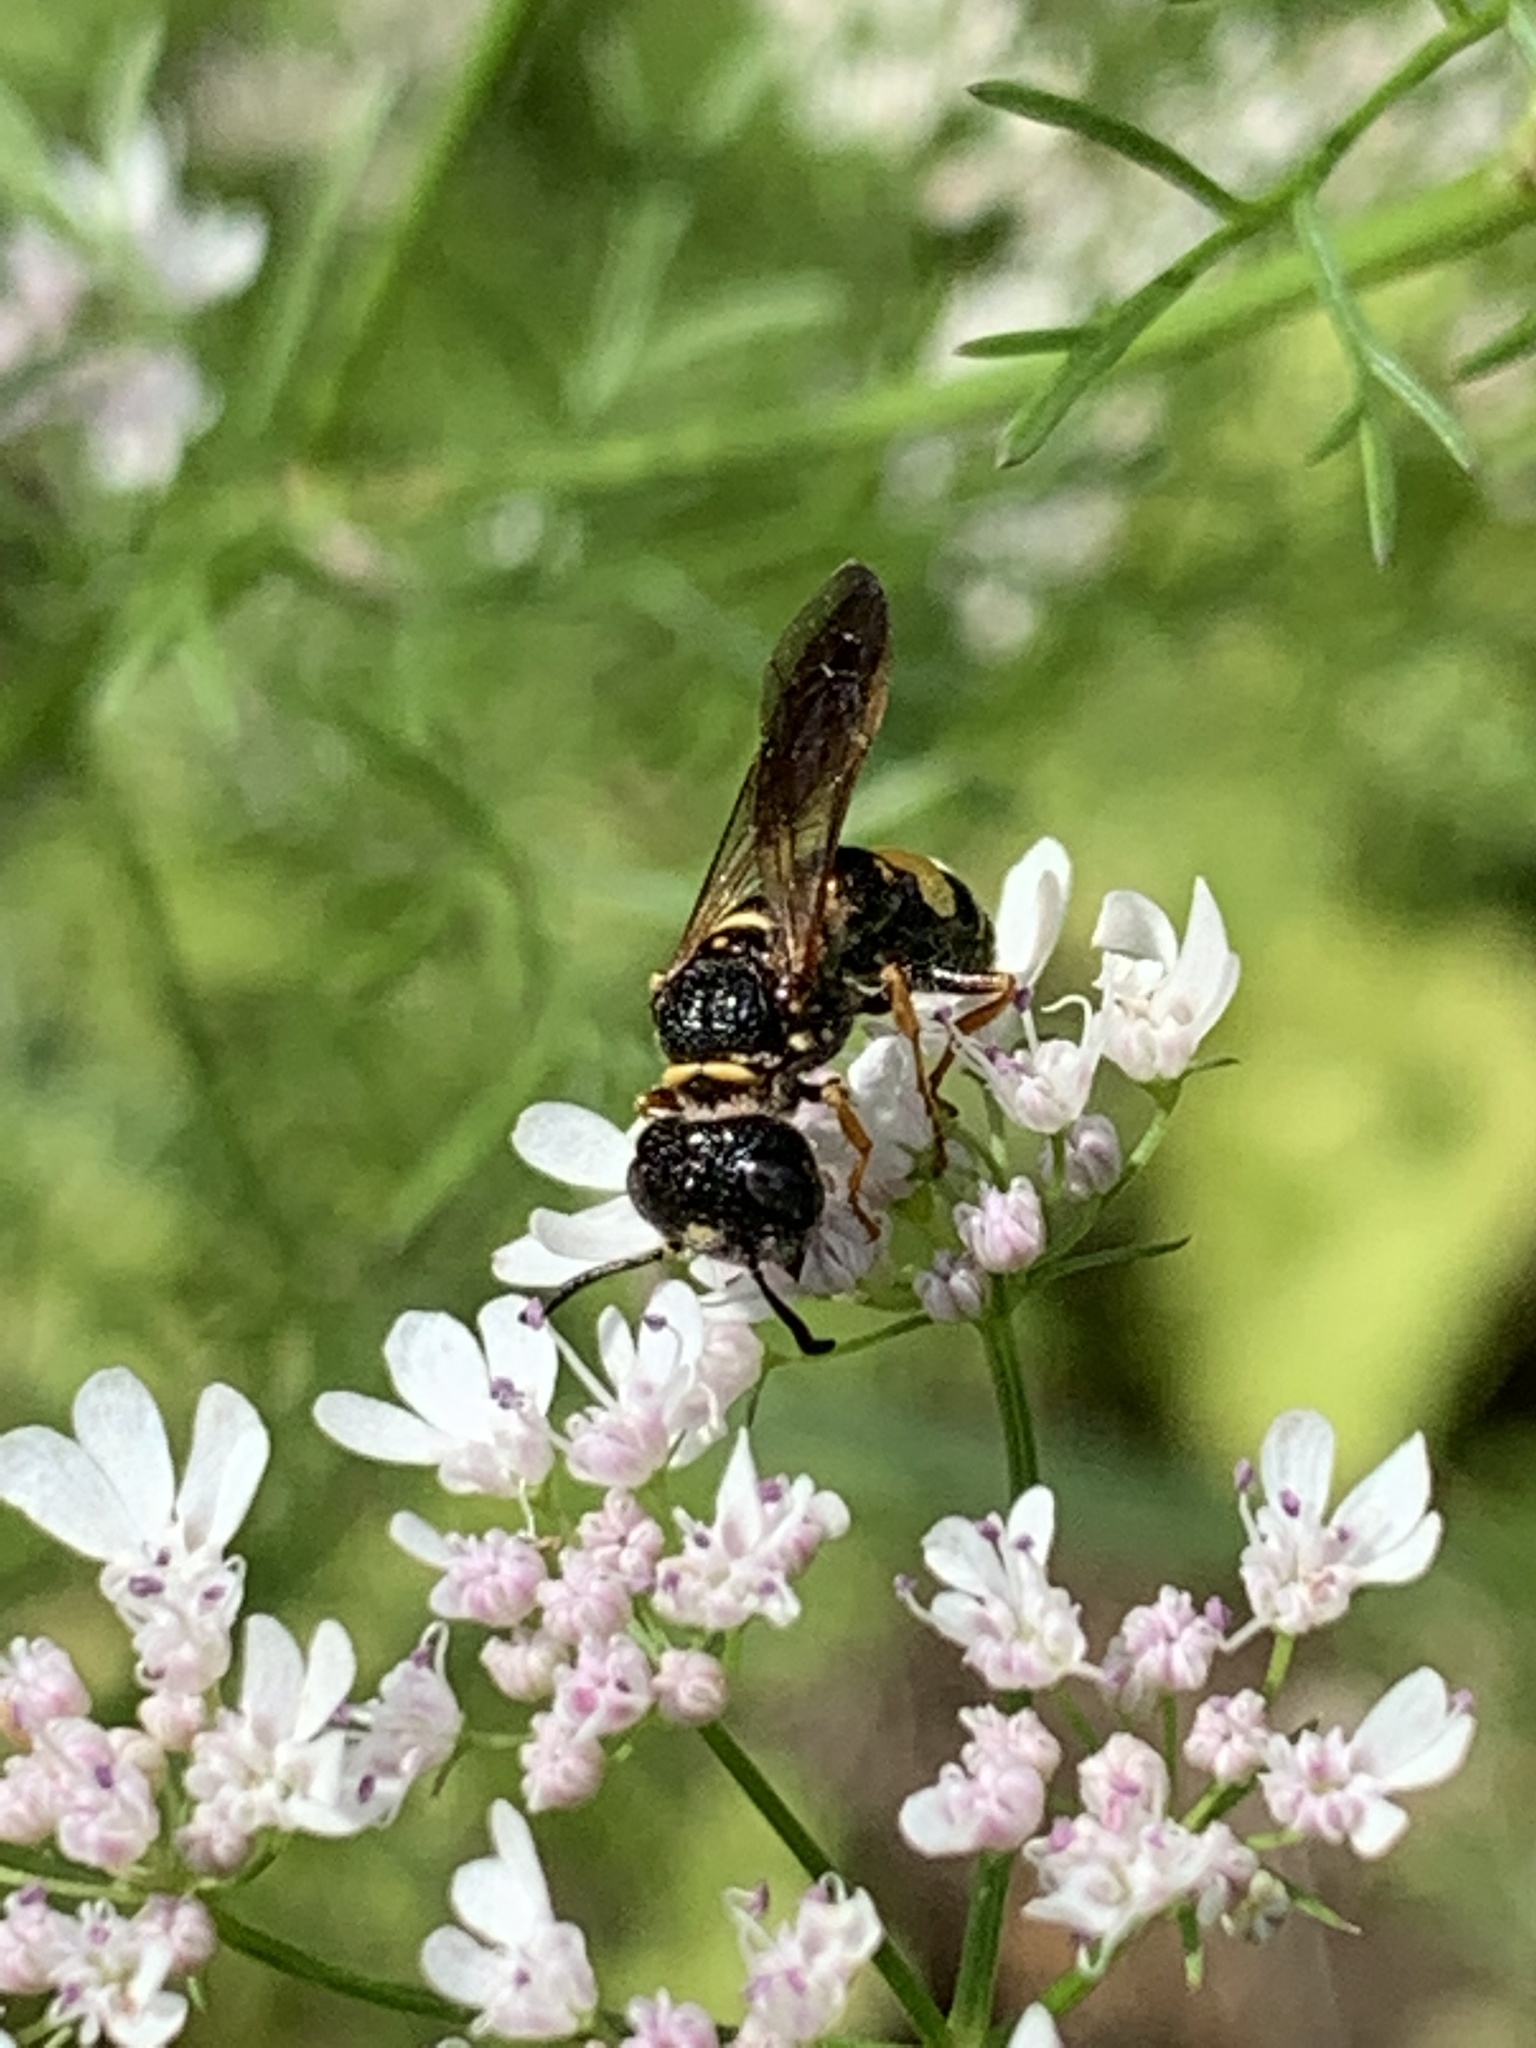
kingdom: Animalia
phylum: Arthropoda
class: Insecta
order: Hymenoptera
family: Crabronidae
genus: Philanthus
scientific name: Philanthus gibbosus
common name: Humped beewolf
